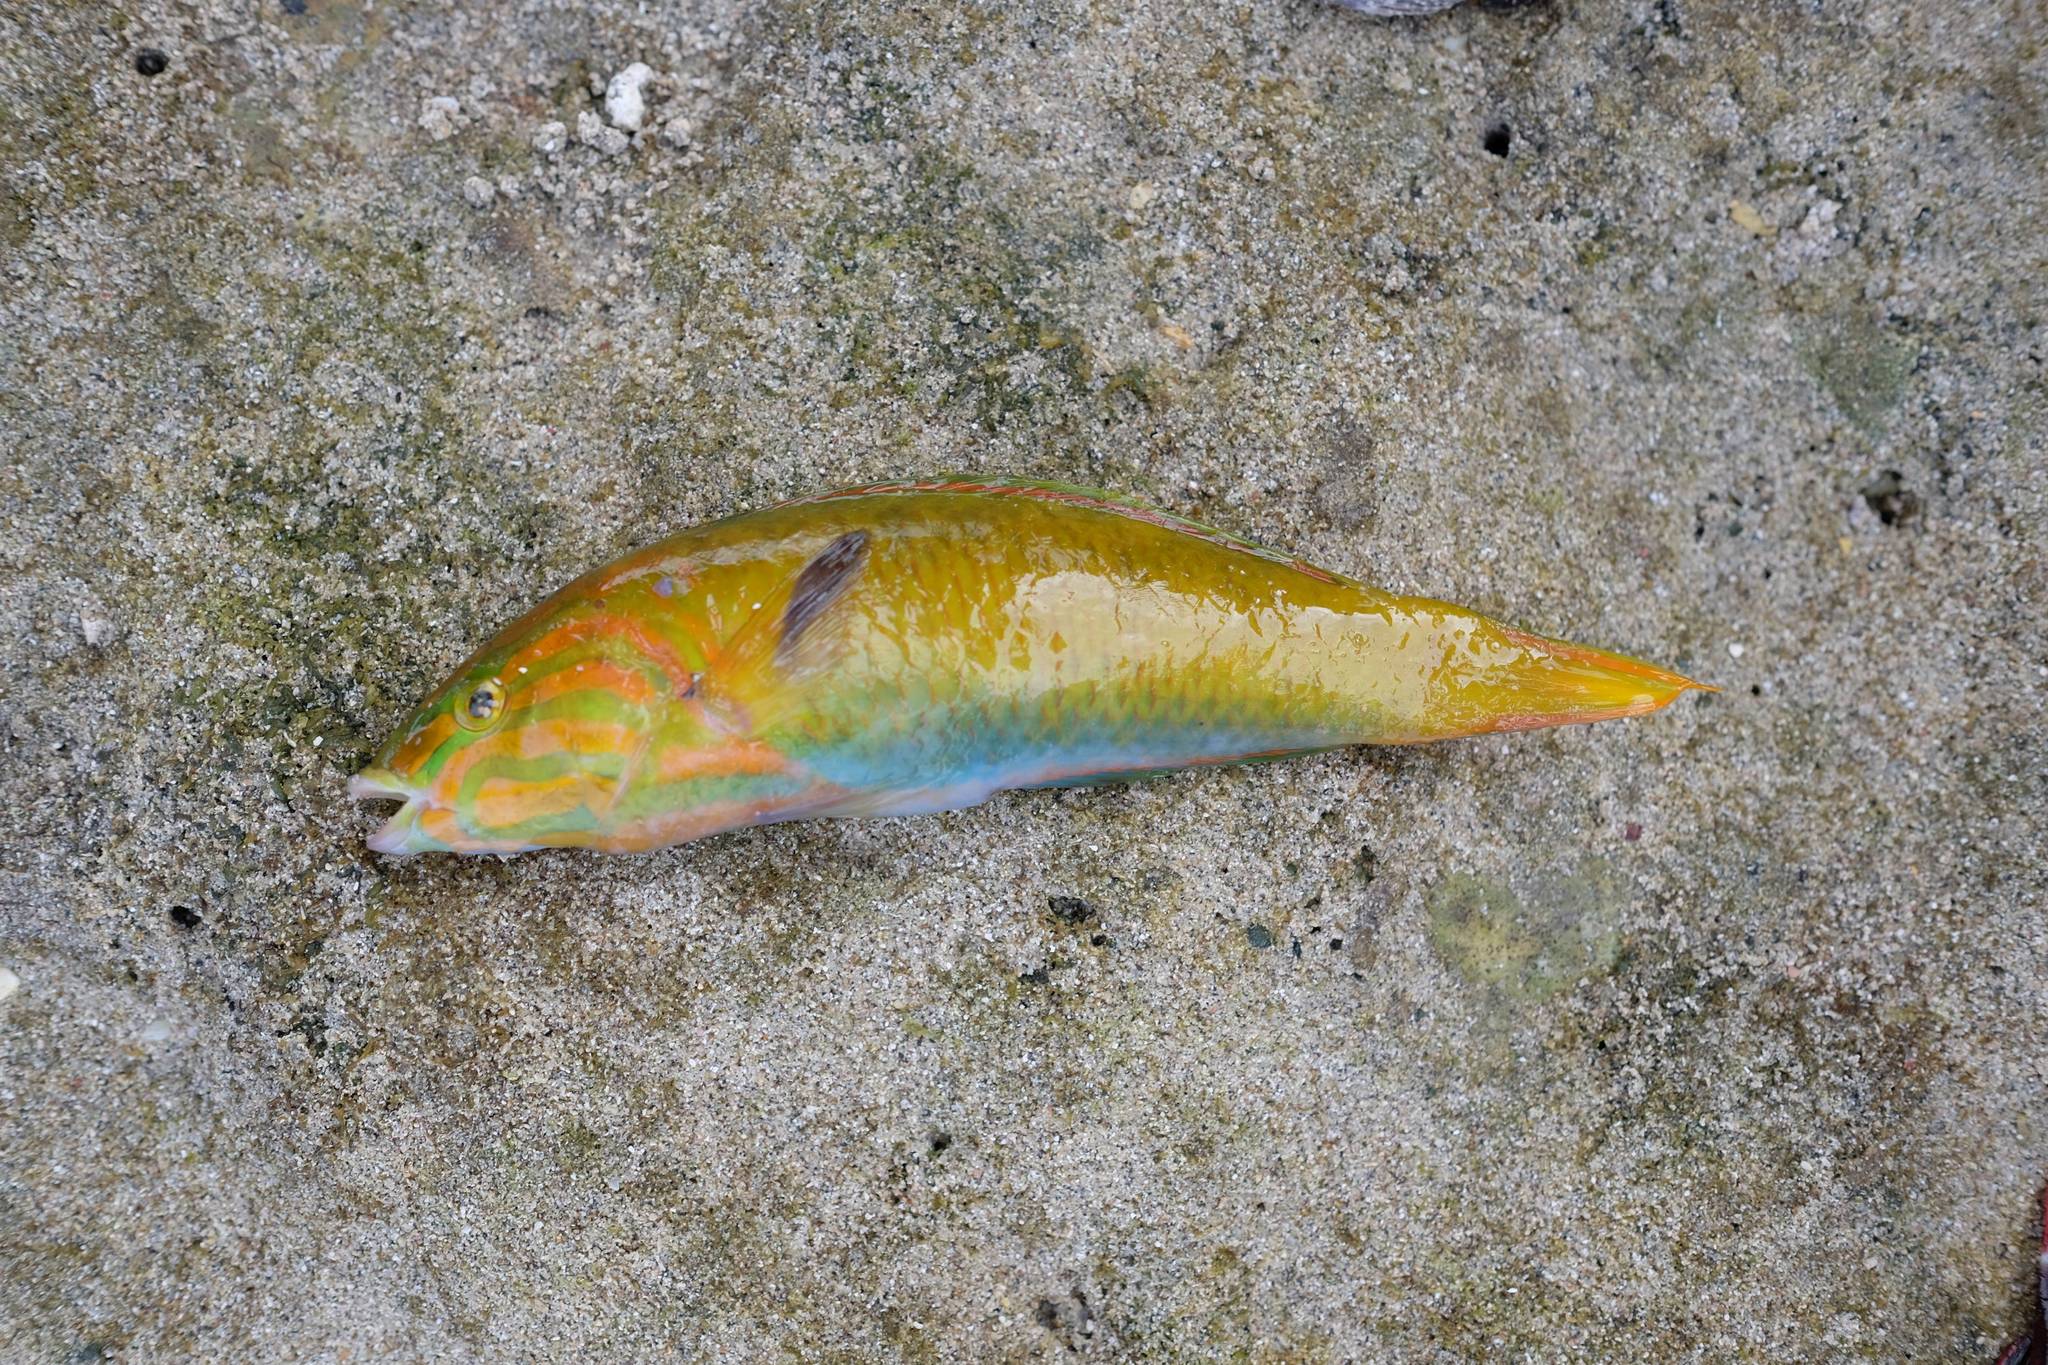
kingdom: Animalia
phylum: Chordata
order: Perciformes
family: Labridae
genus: Thalassoma
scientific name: Thalassoma lutescens
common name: Green moon wrasse
